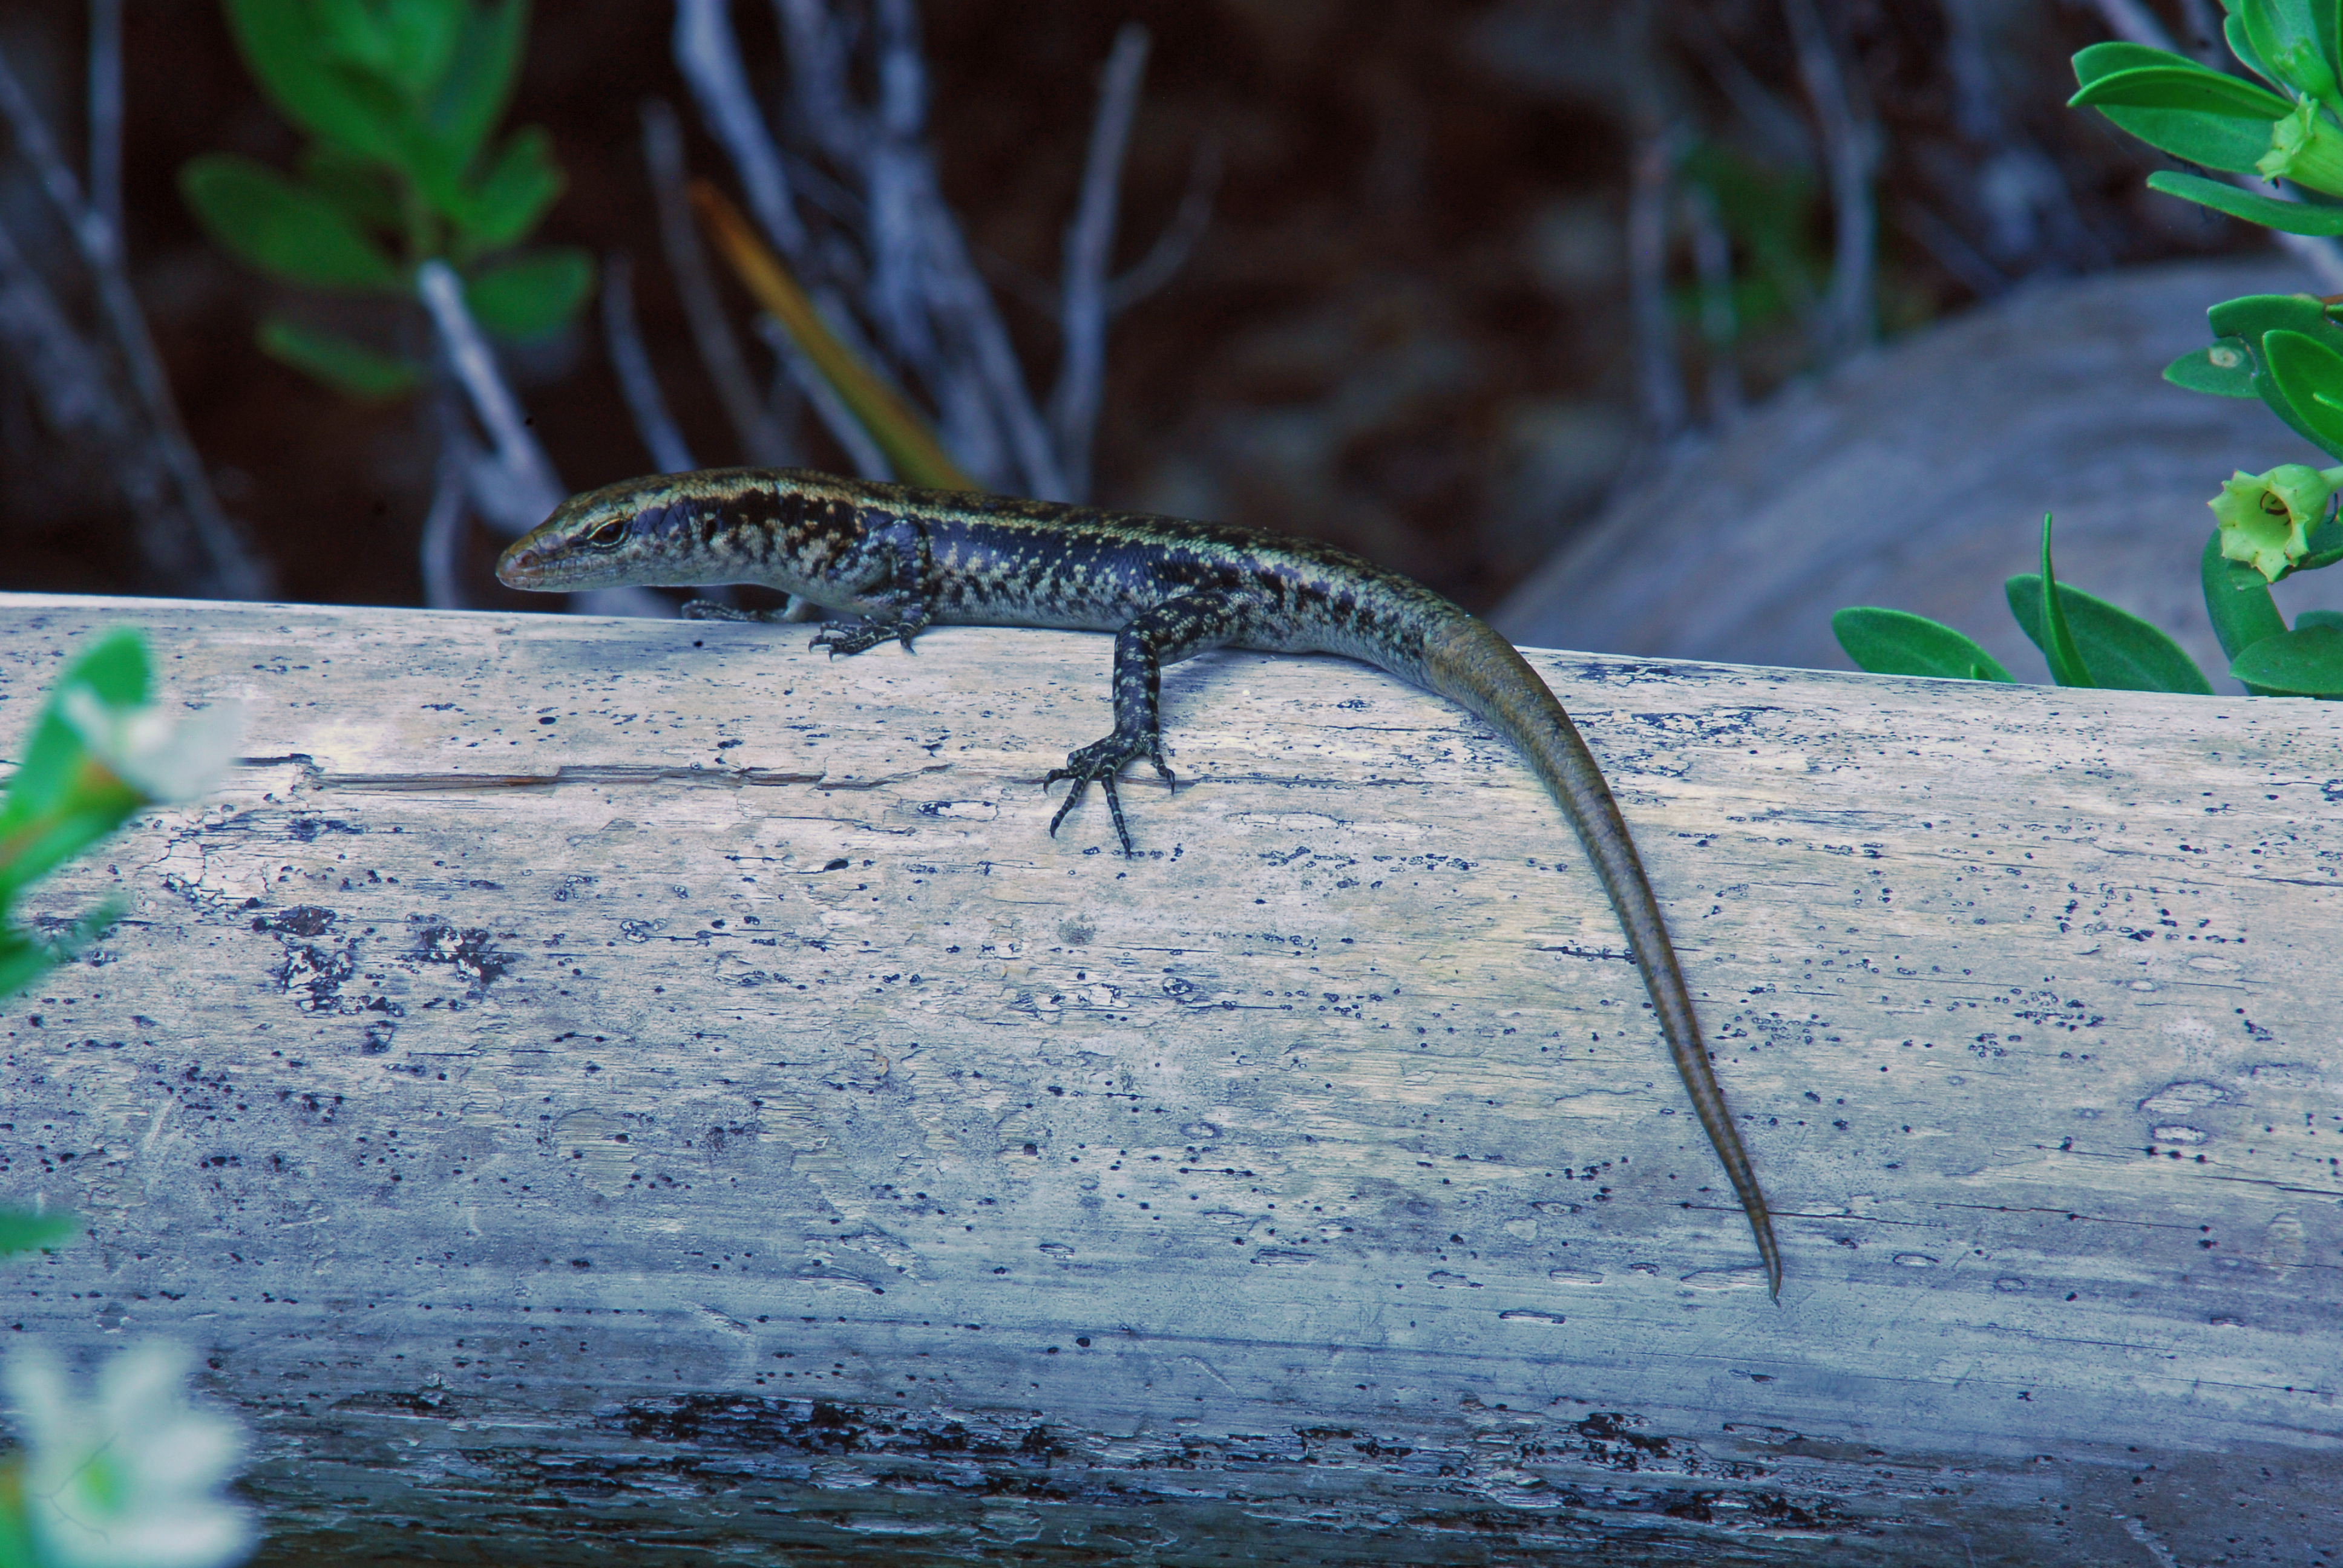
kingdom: Animalia
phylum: Chordata
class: Squamata
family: Scincidae
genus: Emoia
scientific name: Emoia atrocostata
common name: Littoral skink
